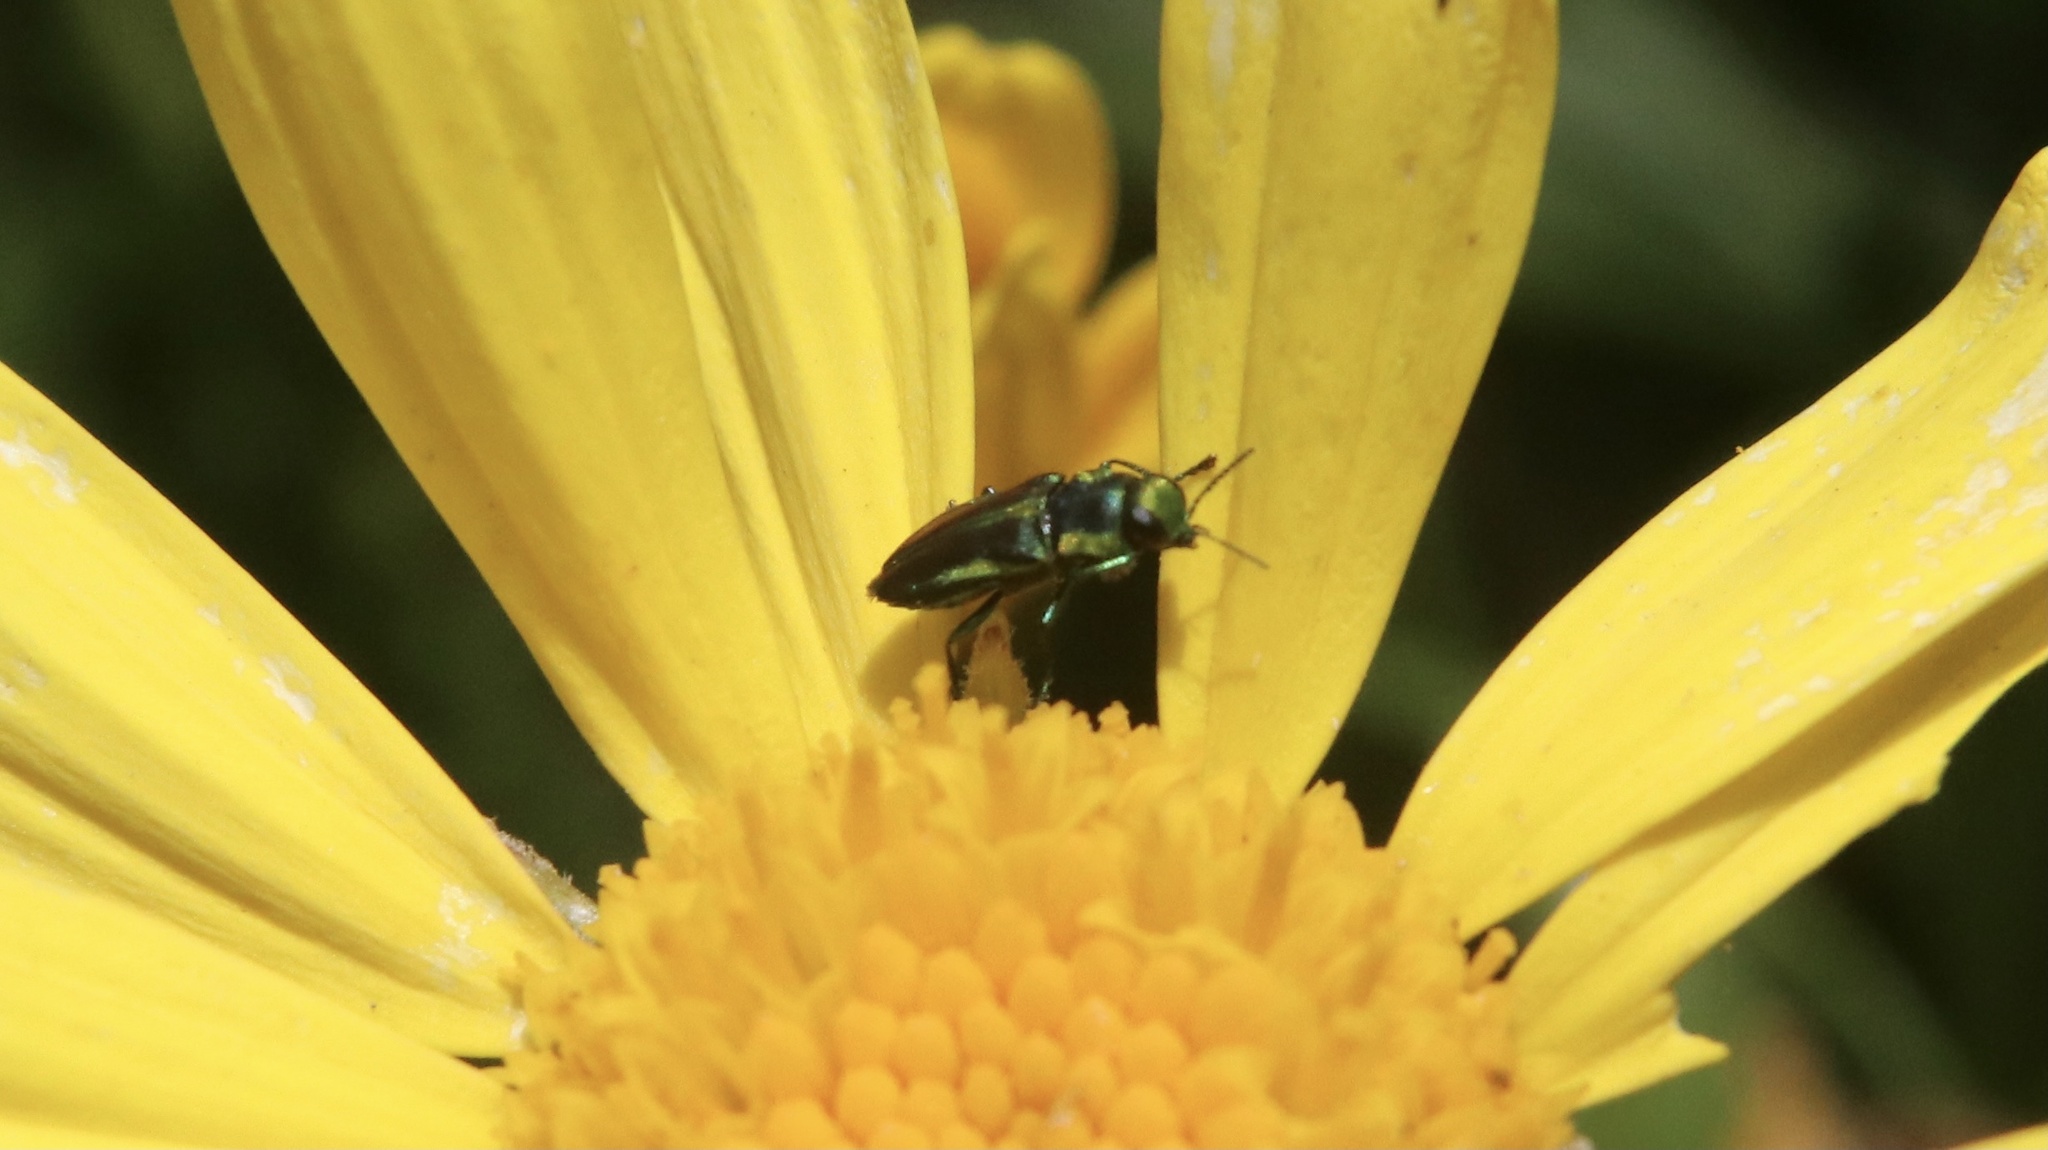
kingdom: Animalia
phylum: Arthropoda
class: Insecta
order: Coleoptera
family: Buprestidae
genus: Bilyaxia
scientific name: Bilyaxia cordillerae
